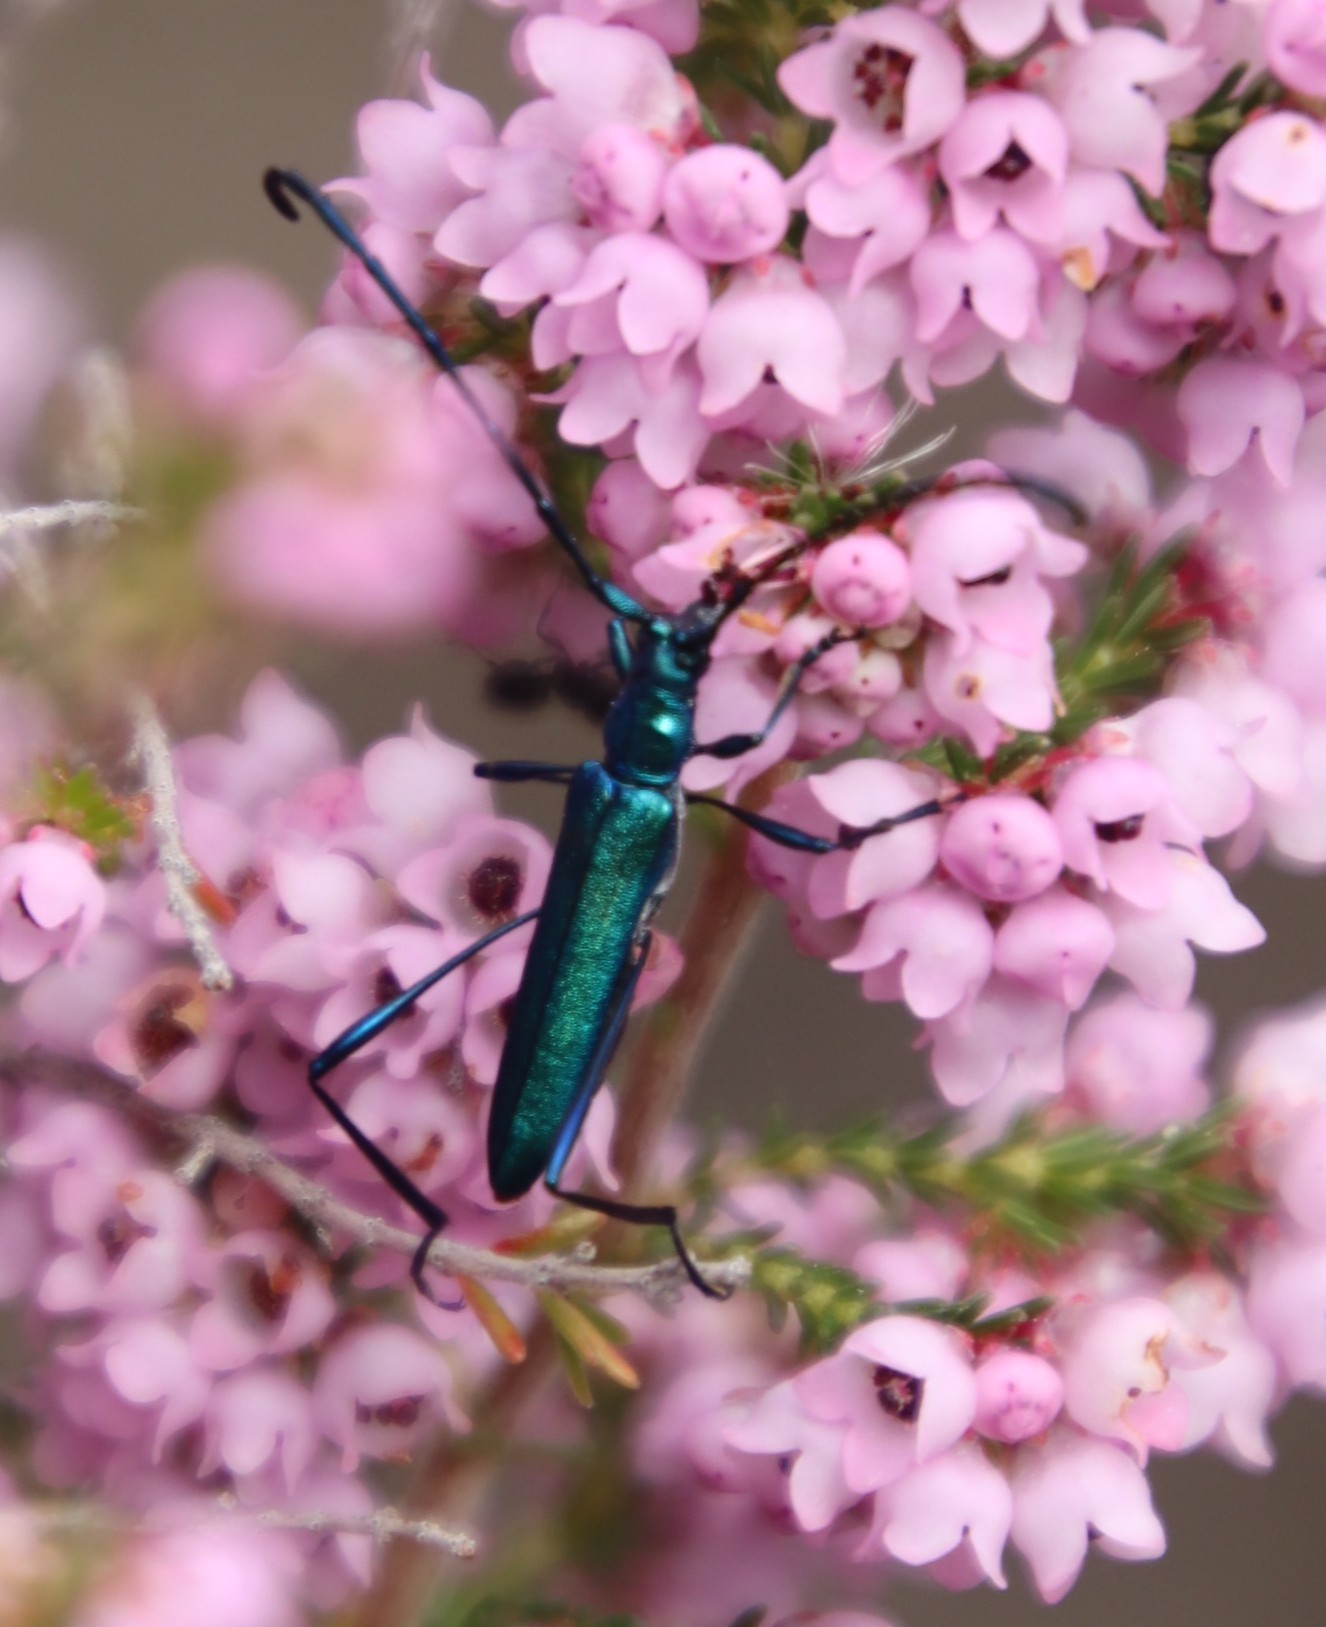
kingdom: Animalia
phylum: Arthropoda
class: Insecta
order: Coleoptera
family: Cerambycidae
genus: Promeces
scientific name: Promeces longipes
